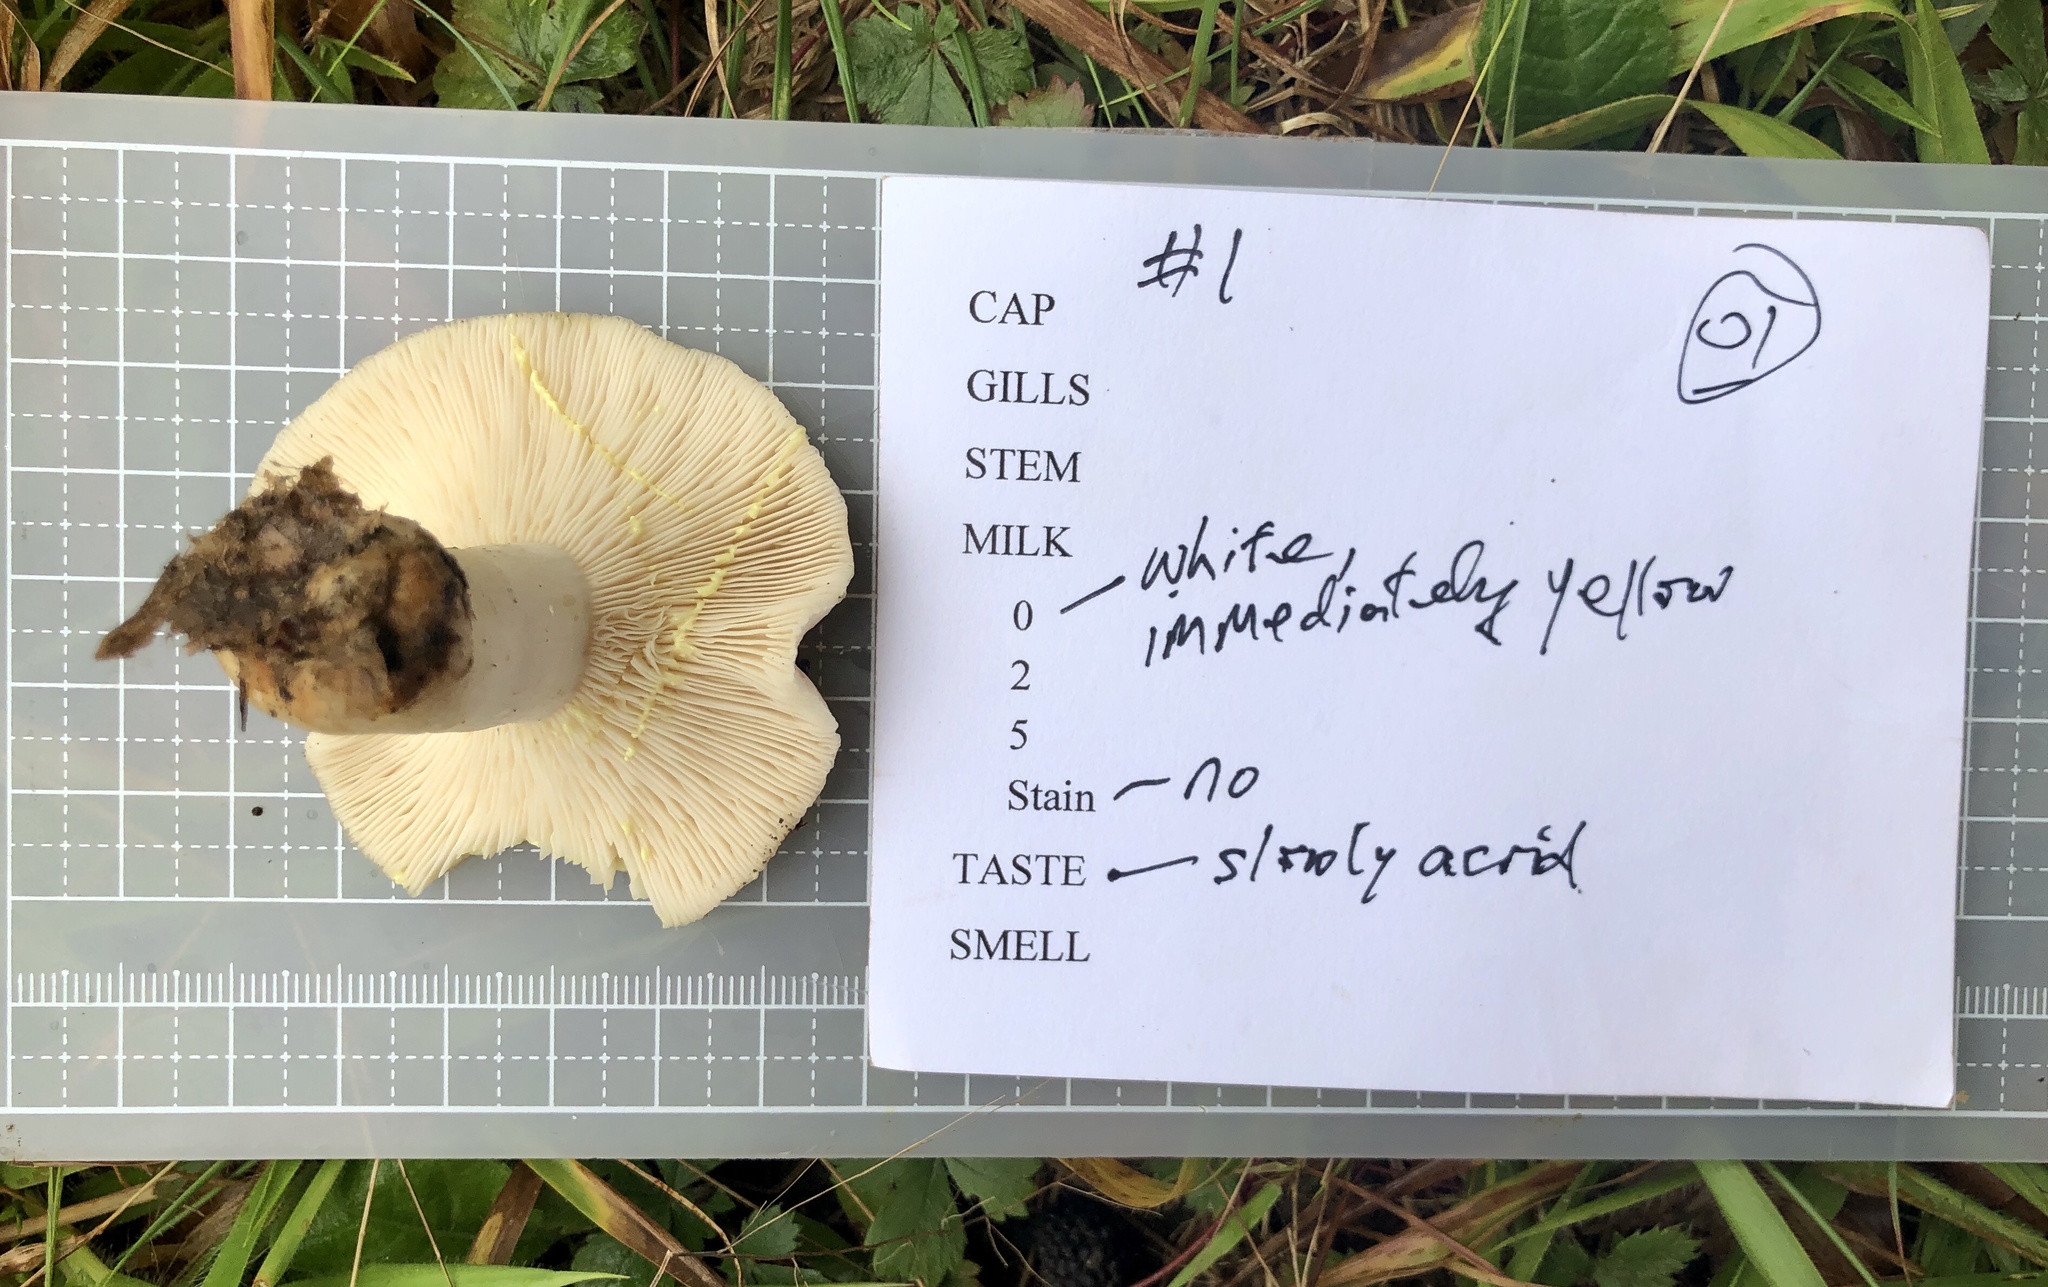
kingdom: Fungi
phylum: Basidiomycota
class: Agaricomycetes
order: Russulales
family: Russulaceae
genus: Lactarius
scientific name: Lactarius chrysorrheus
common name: Yellowdrop milkcap
